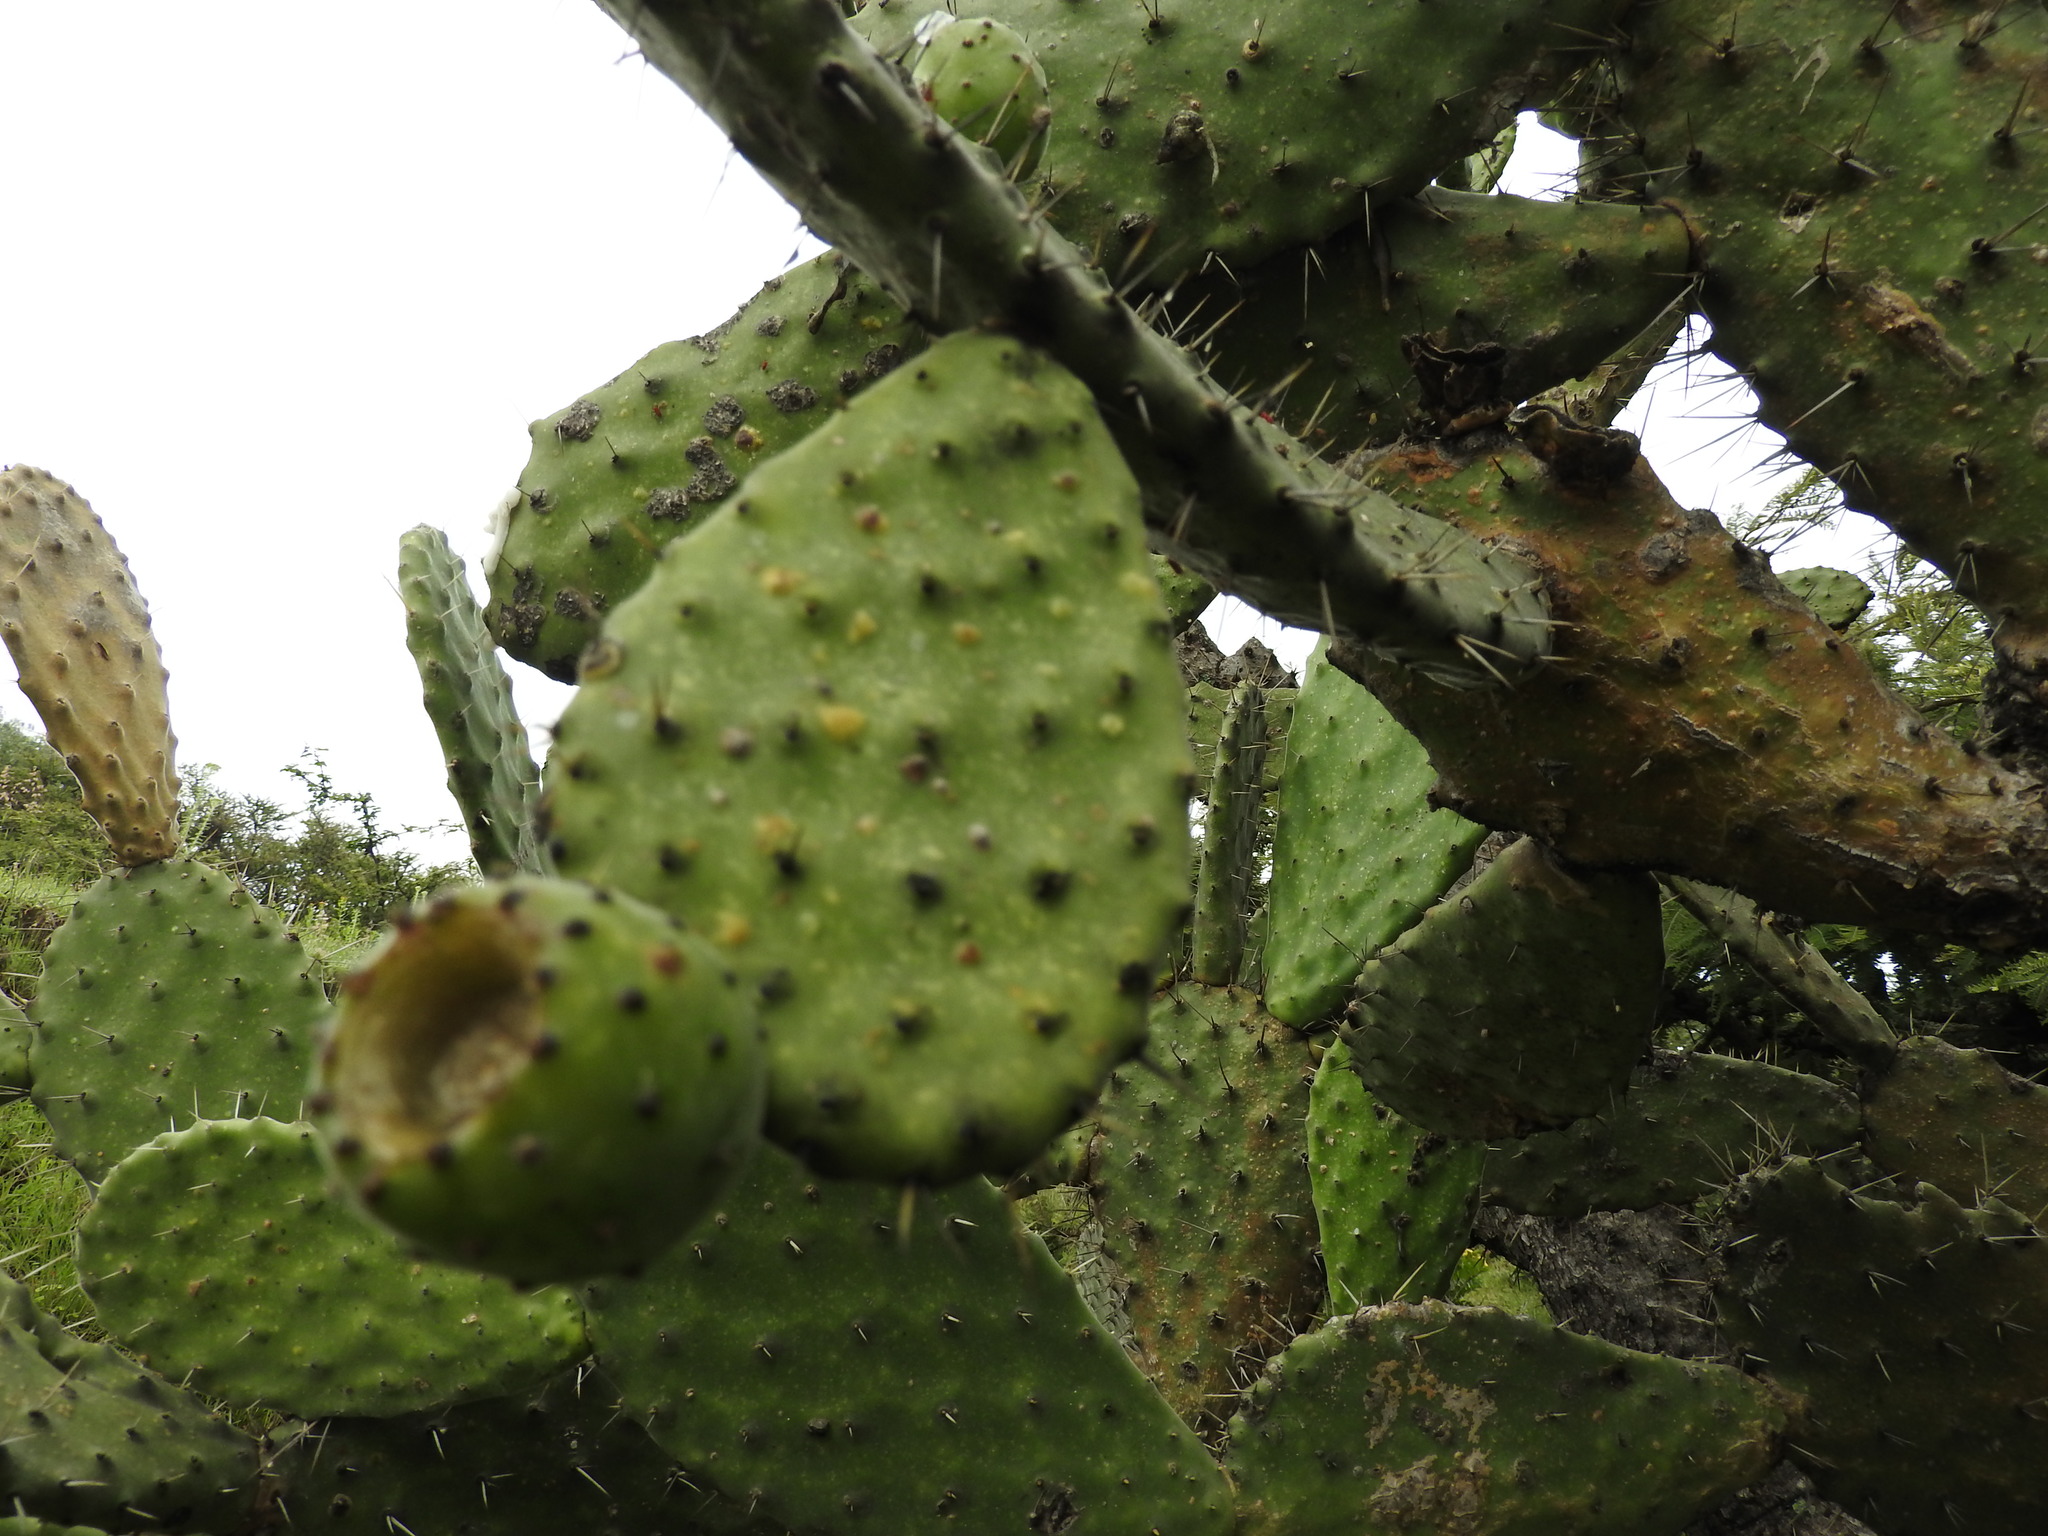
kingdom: Plantae
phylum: Tracheophyta
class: Magnoliopsida
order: Caryophyllales
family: Cactaceae
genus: Opuntia
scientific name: Opuntia jaliscana
